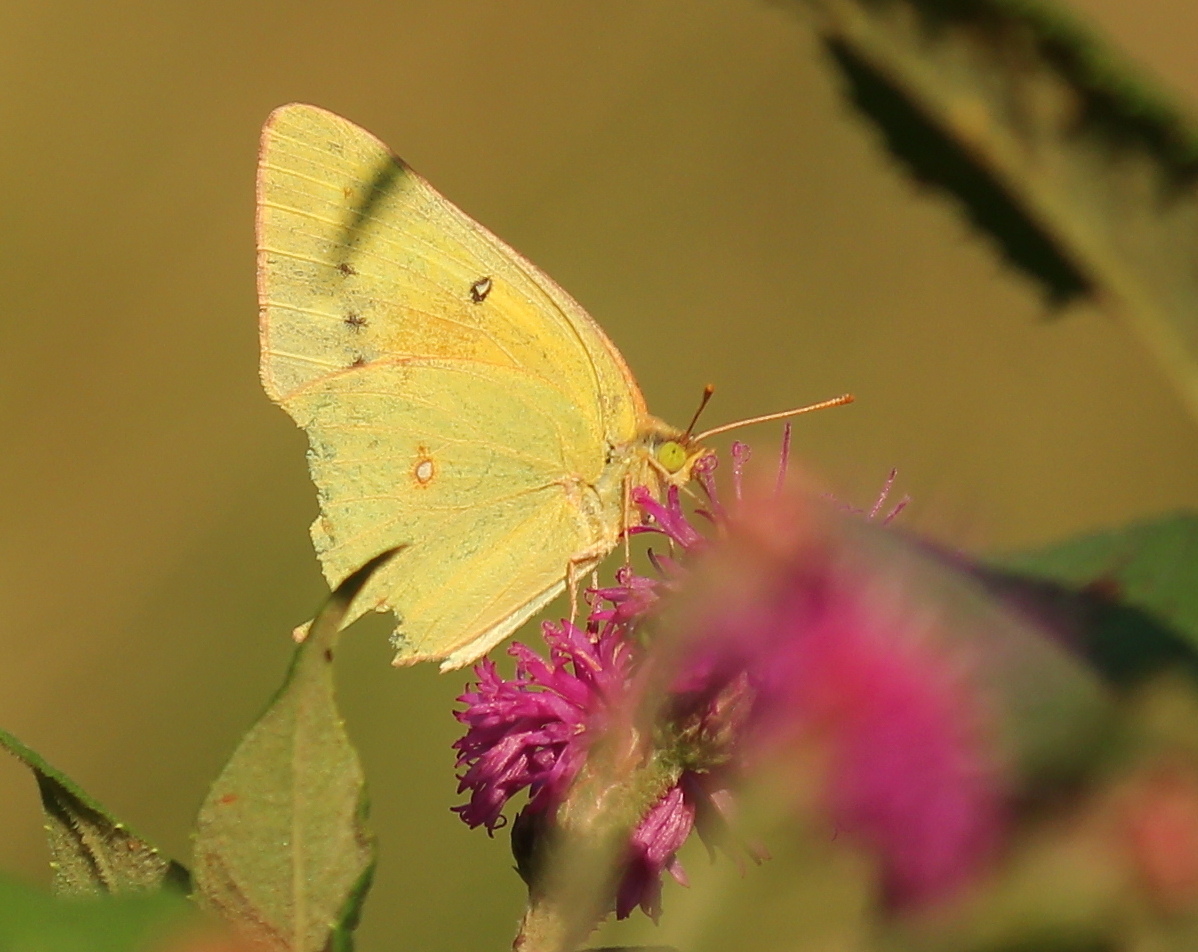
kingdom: Animalia
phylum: Arthropoda
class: Insecta
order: Lepidoptera
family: Pieridae
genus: Colias
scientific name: Colias eurytheme
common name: Alfalfa butterfly
